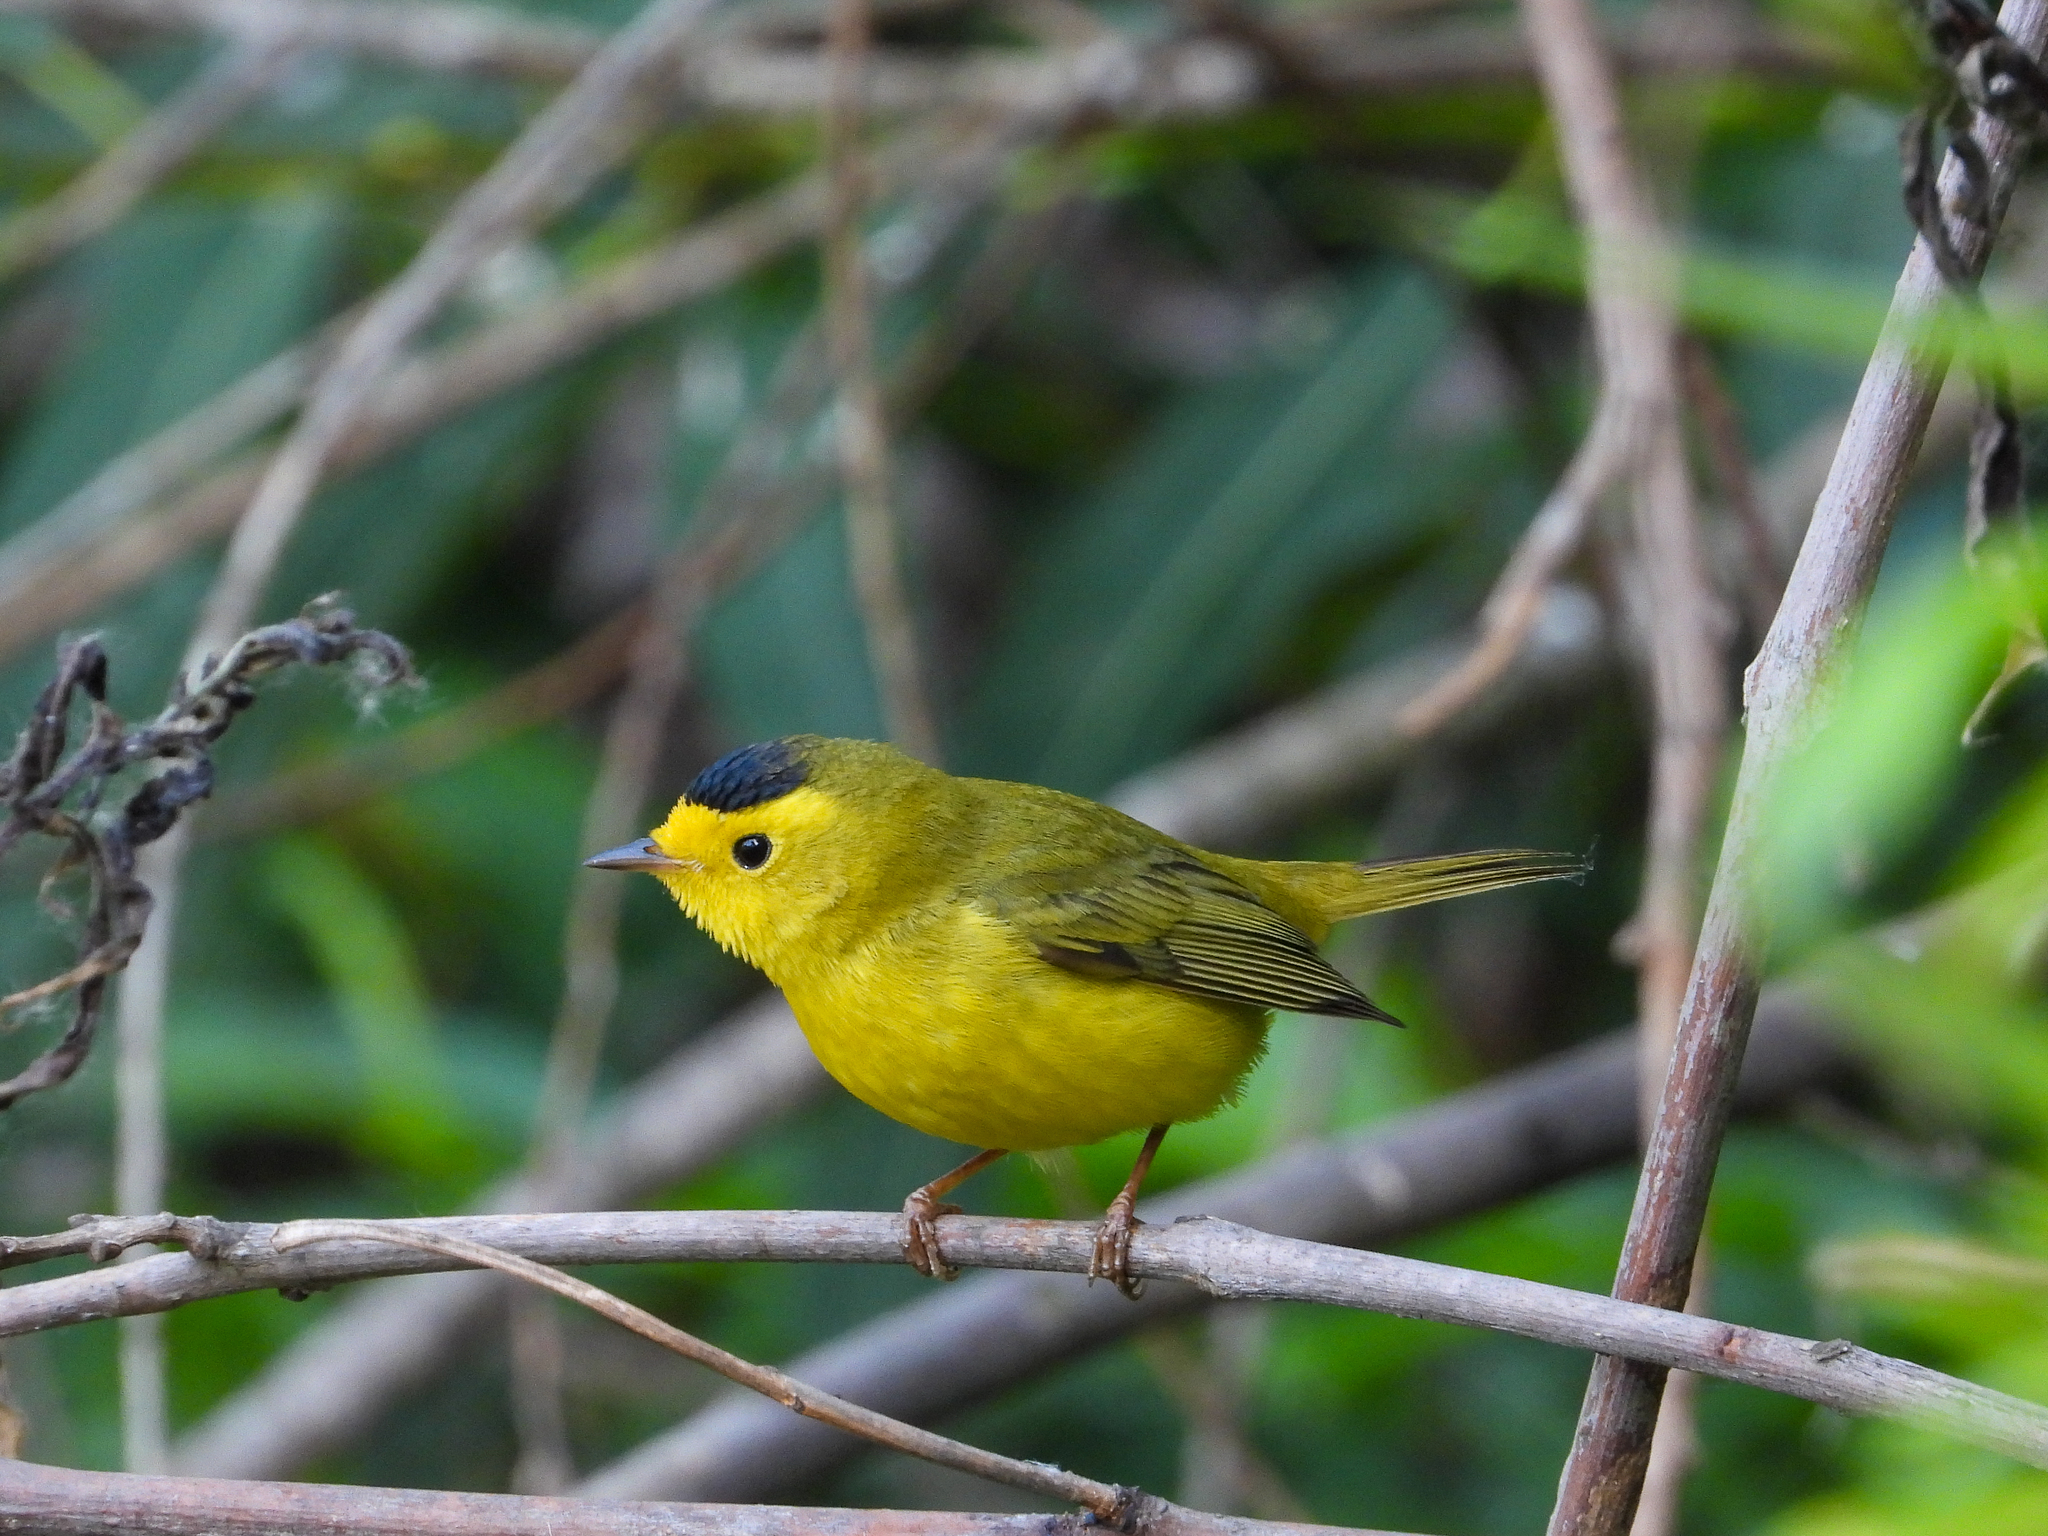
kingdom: Animalia
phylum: Chordata
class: Aves
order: Passeriformes
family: Parulidae
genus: Cardellina
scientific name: Cardellina pusilla
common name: Wilson's warbler
